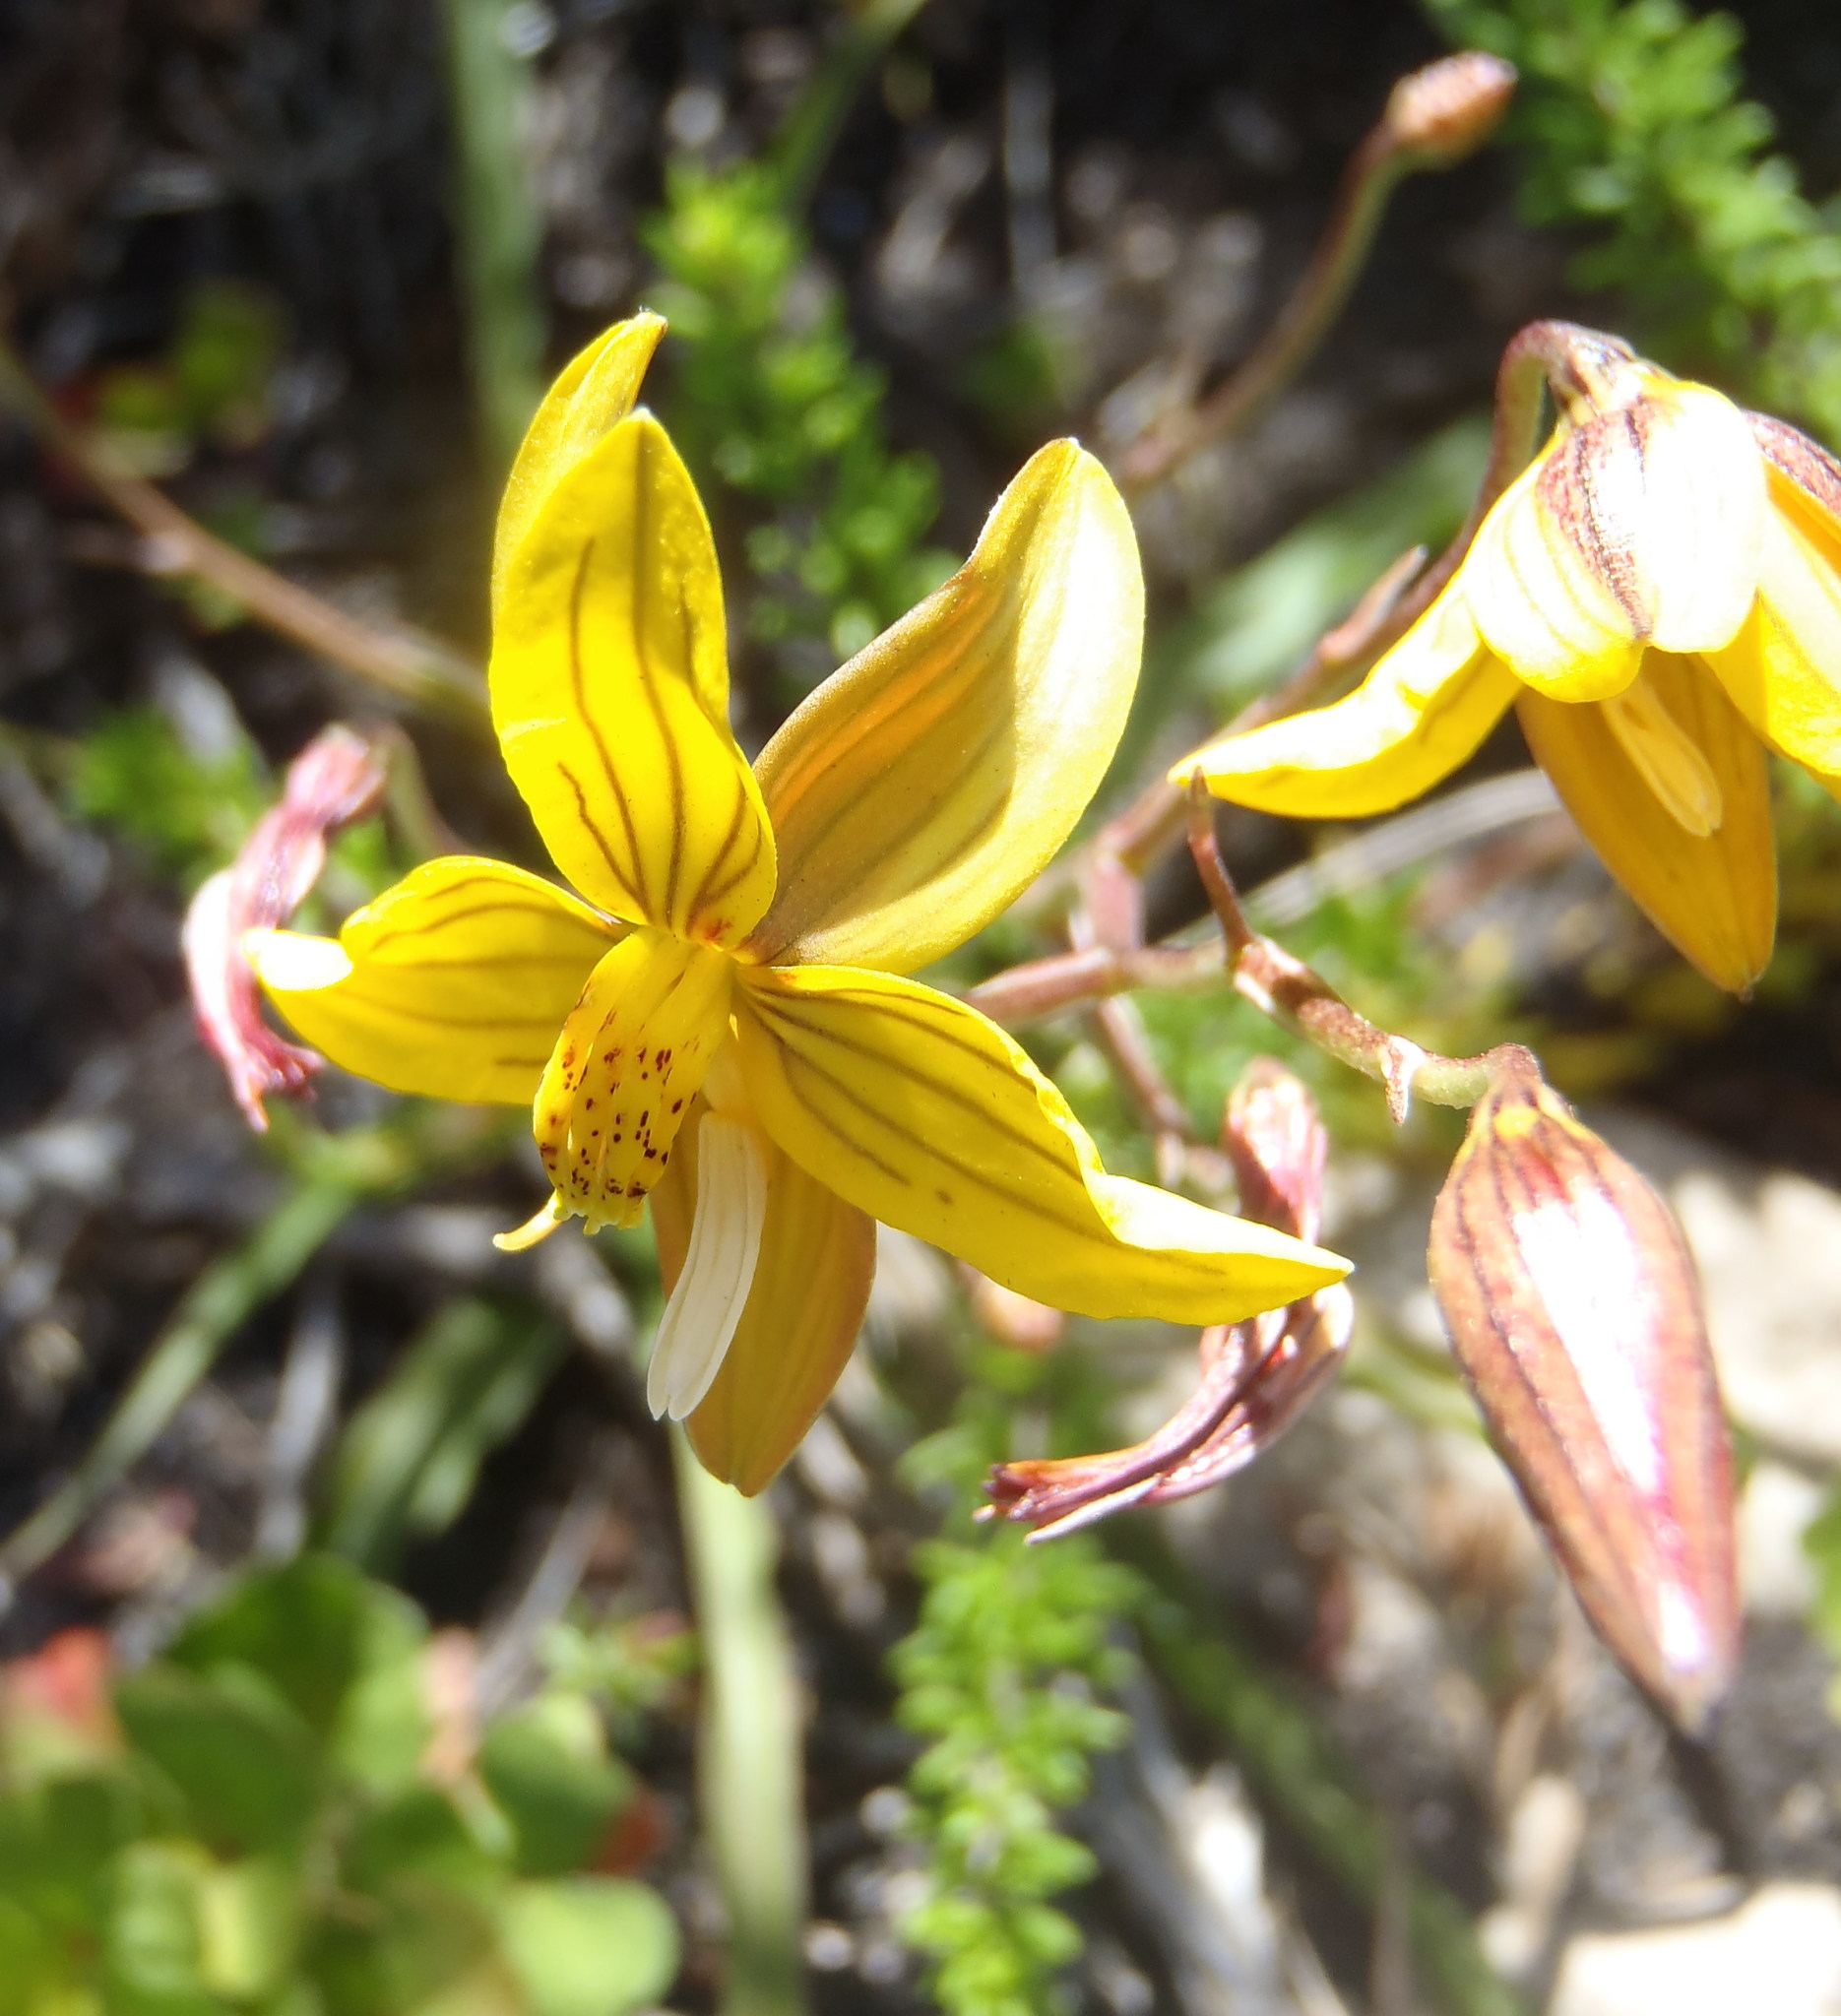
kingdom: Plantae
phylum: Tracheophyta
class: Liliopsida
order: Asparagales
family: Tecophilaeaceae
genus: Cyanella
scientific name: Cyanella lutea
